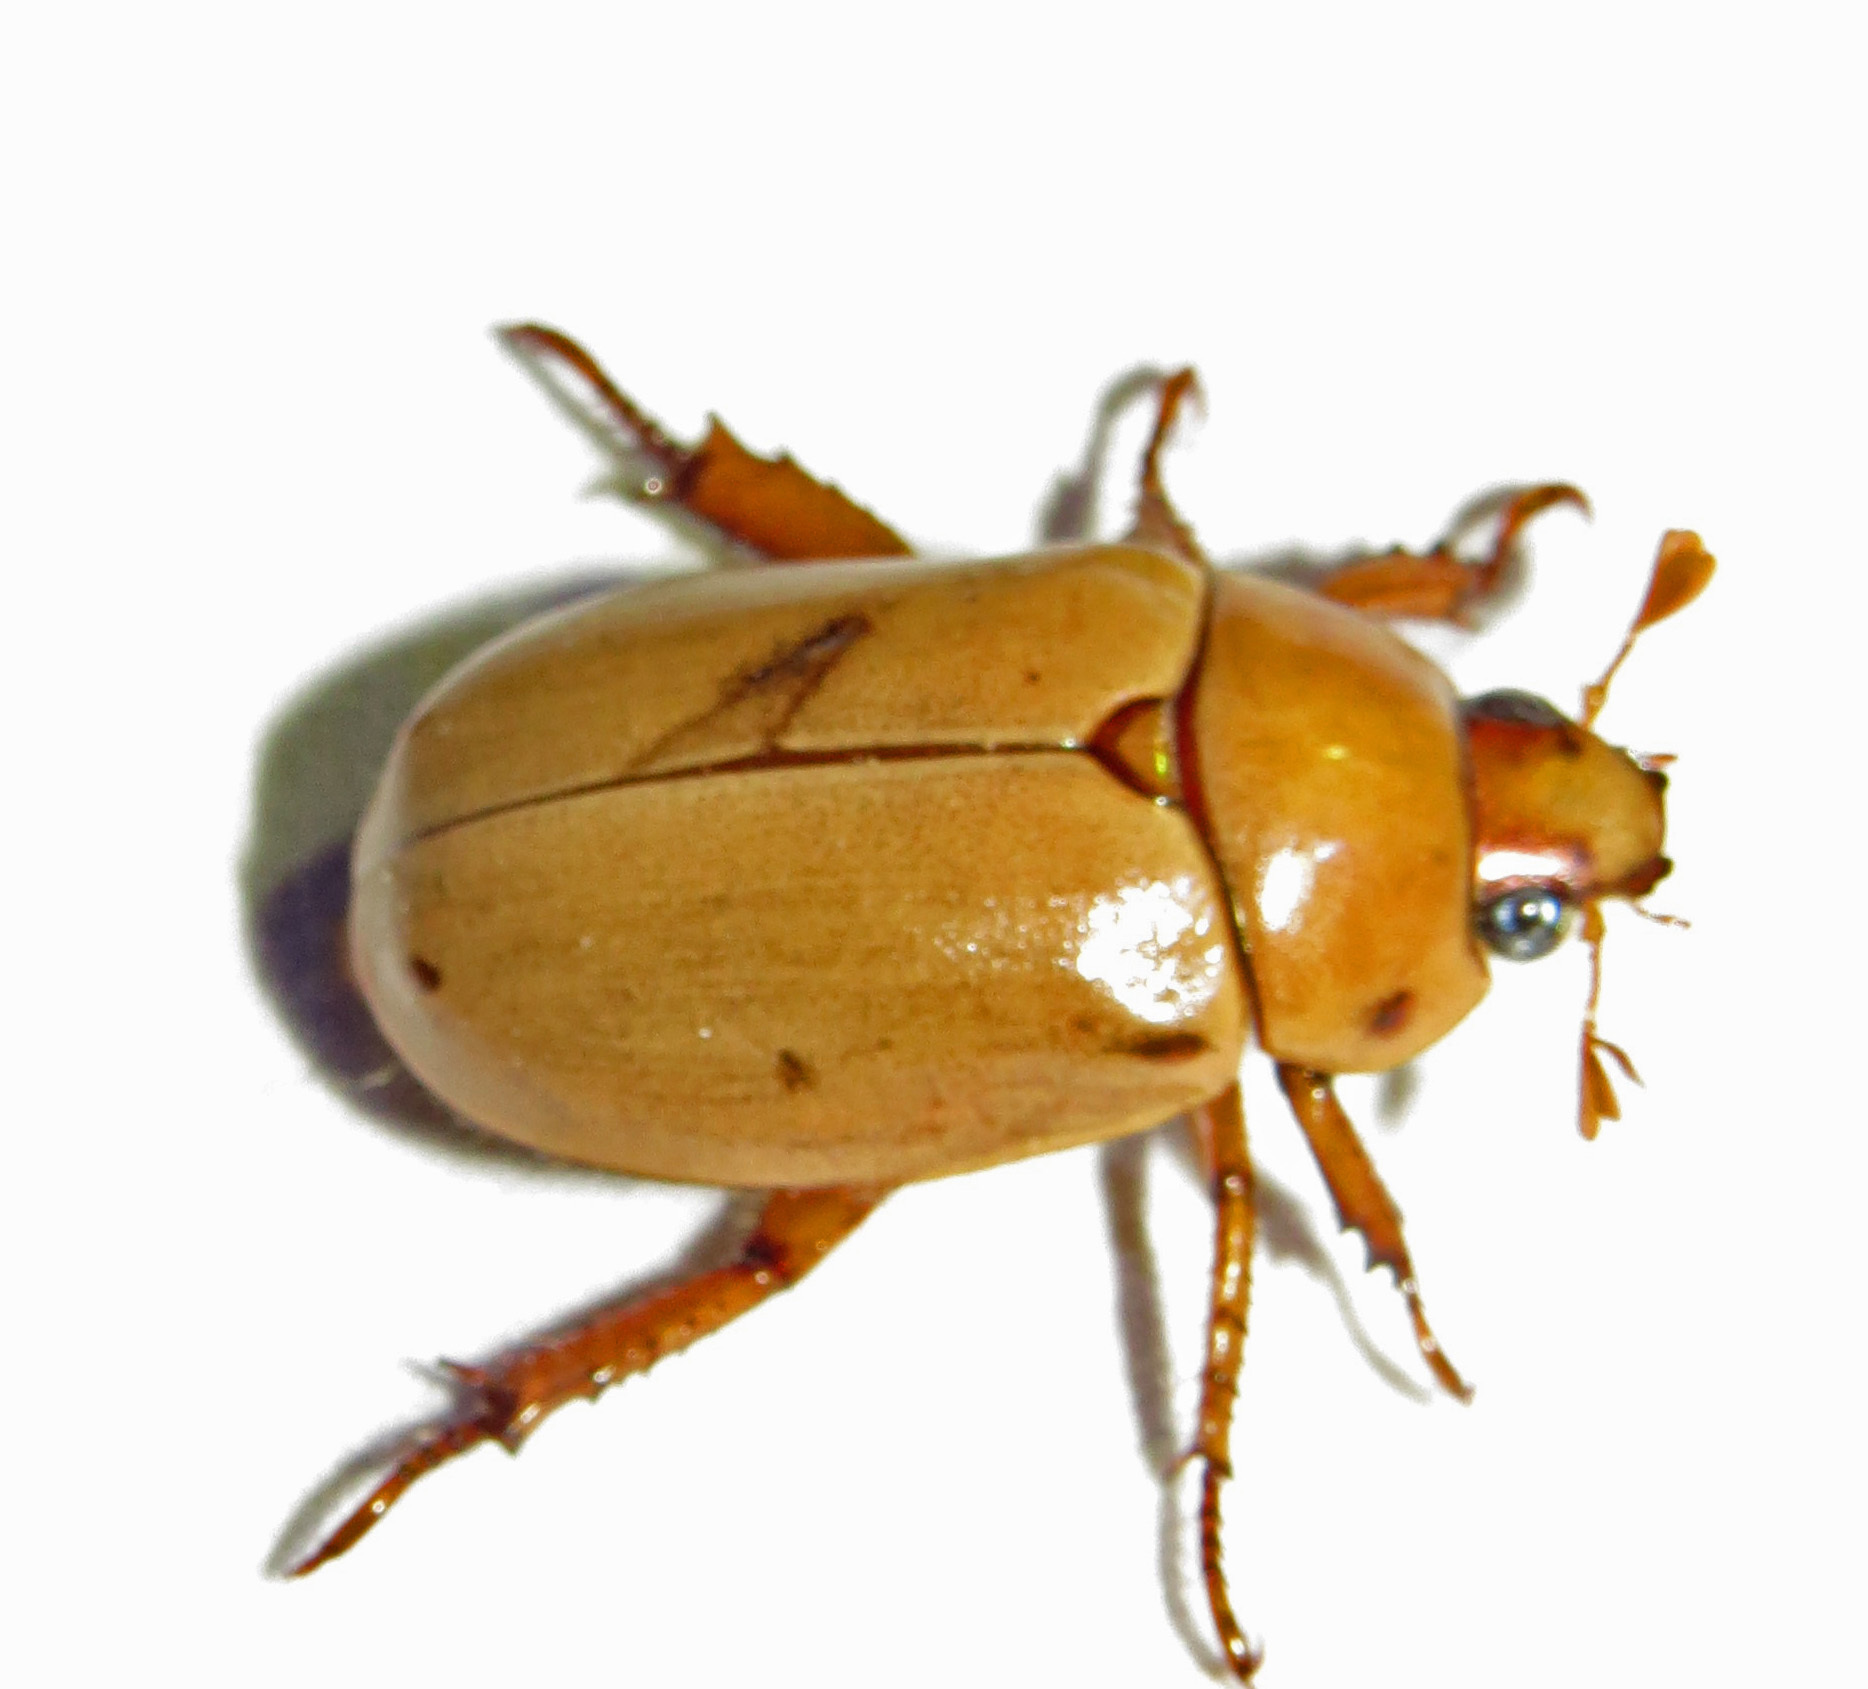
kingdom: Animalia
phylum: Arthropoda
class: Insecta
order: Coleoptera
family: Scarabaeidae
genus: Pelidnota
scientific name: Pelidnota punctata
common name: Grapevine beetle
